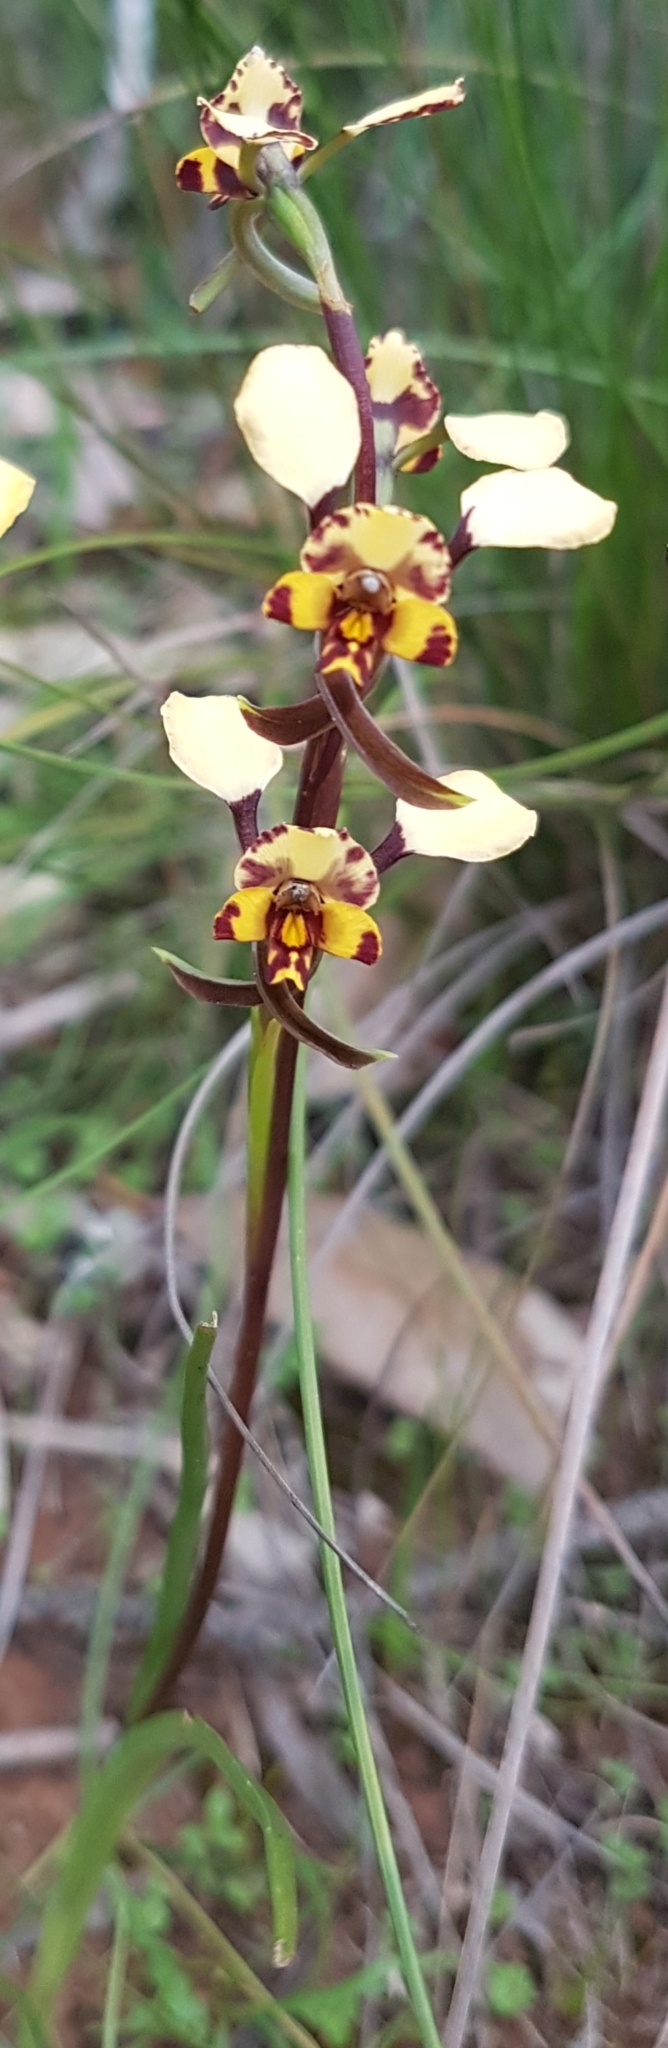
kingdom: Plantae
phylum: Tracheophyta
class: Liliopsida
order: Asparagales
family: Orchidaceae
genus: Diuris
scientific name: Diuris pardina
